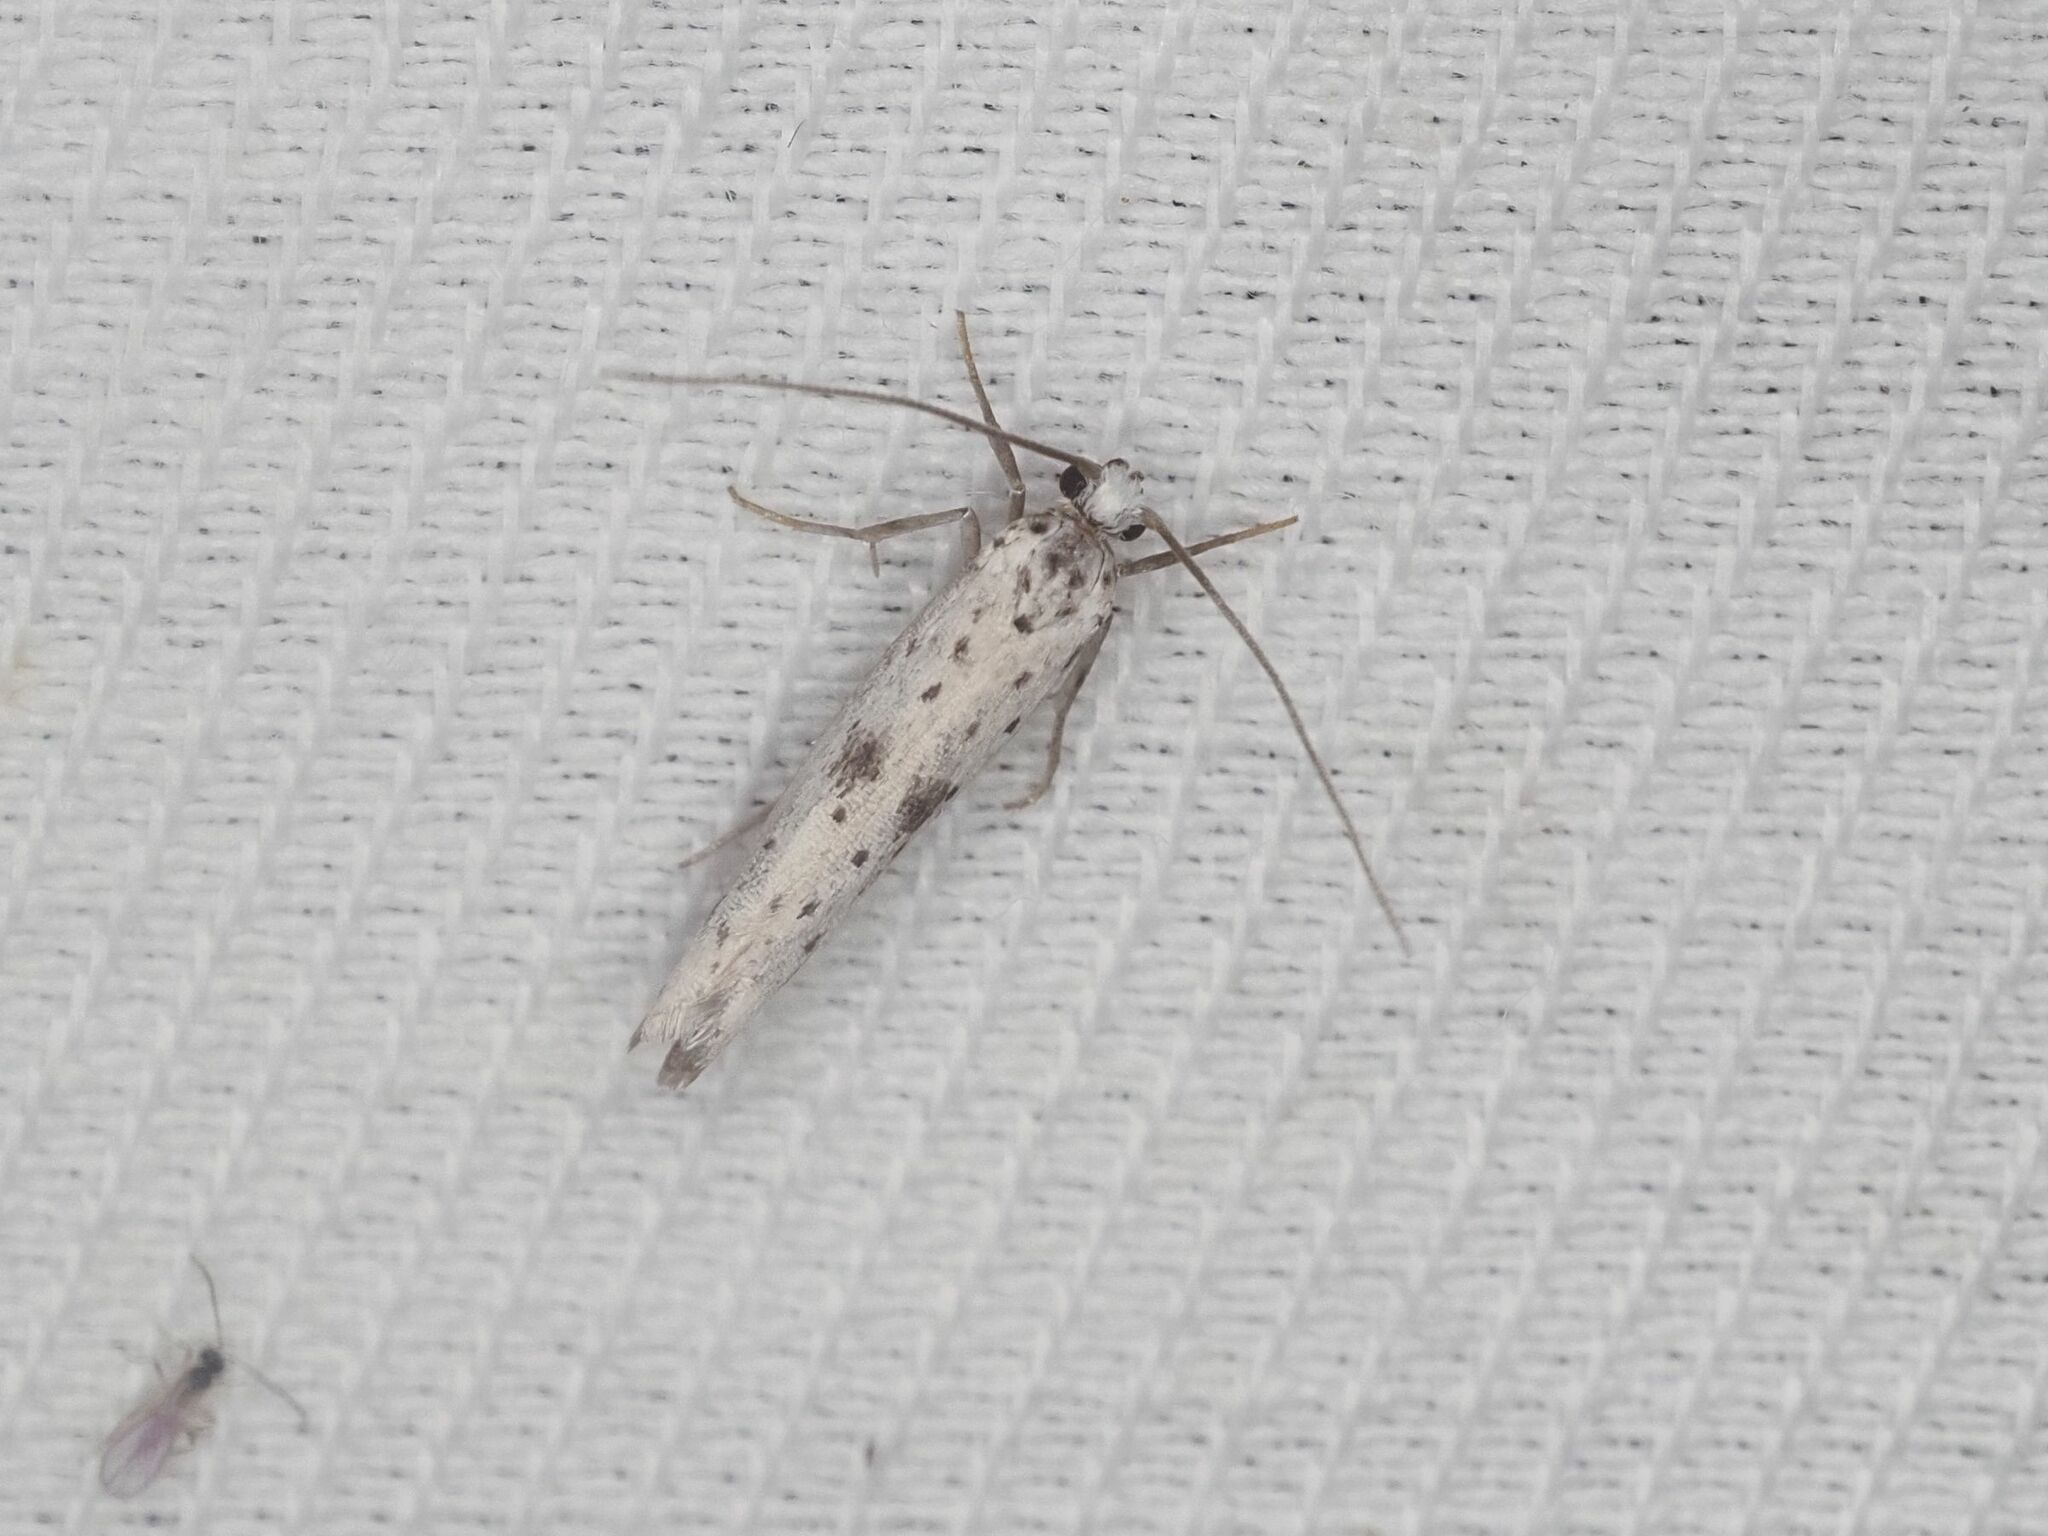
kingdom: Animalia
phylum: Arthropoda
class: Insecta
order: Lepidoptera
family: Yponomeutidae
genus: Yponomeuta
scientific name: Yponomeuta plumbella
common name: Black-tipped ermine
